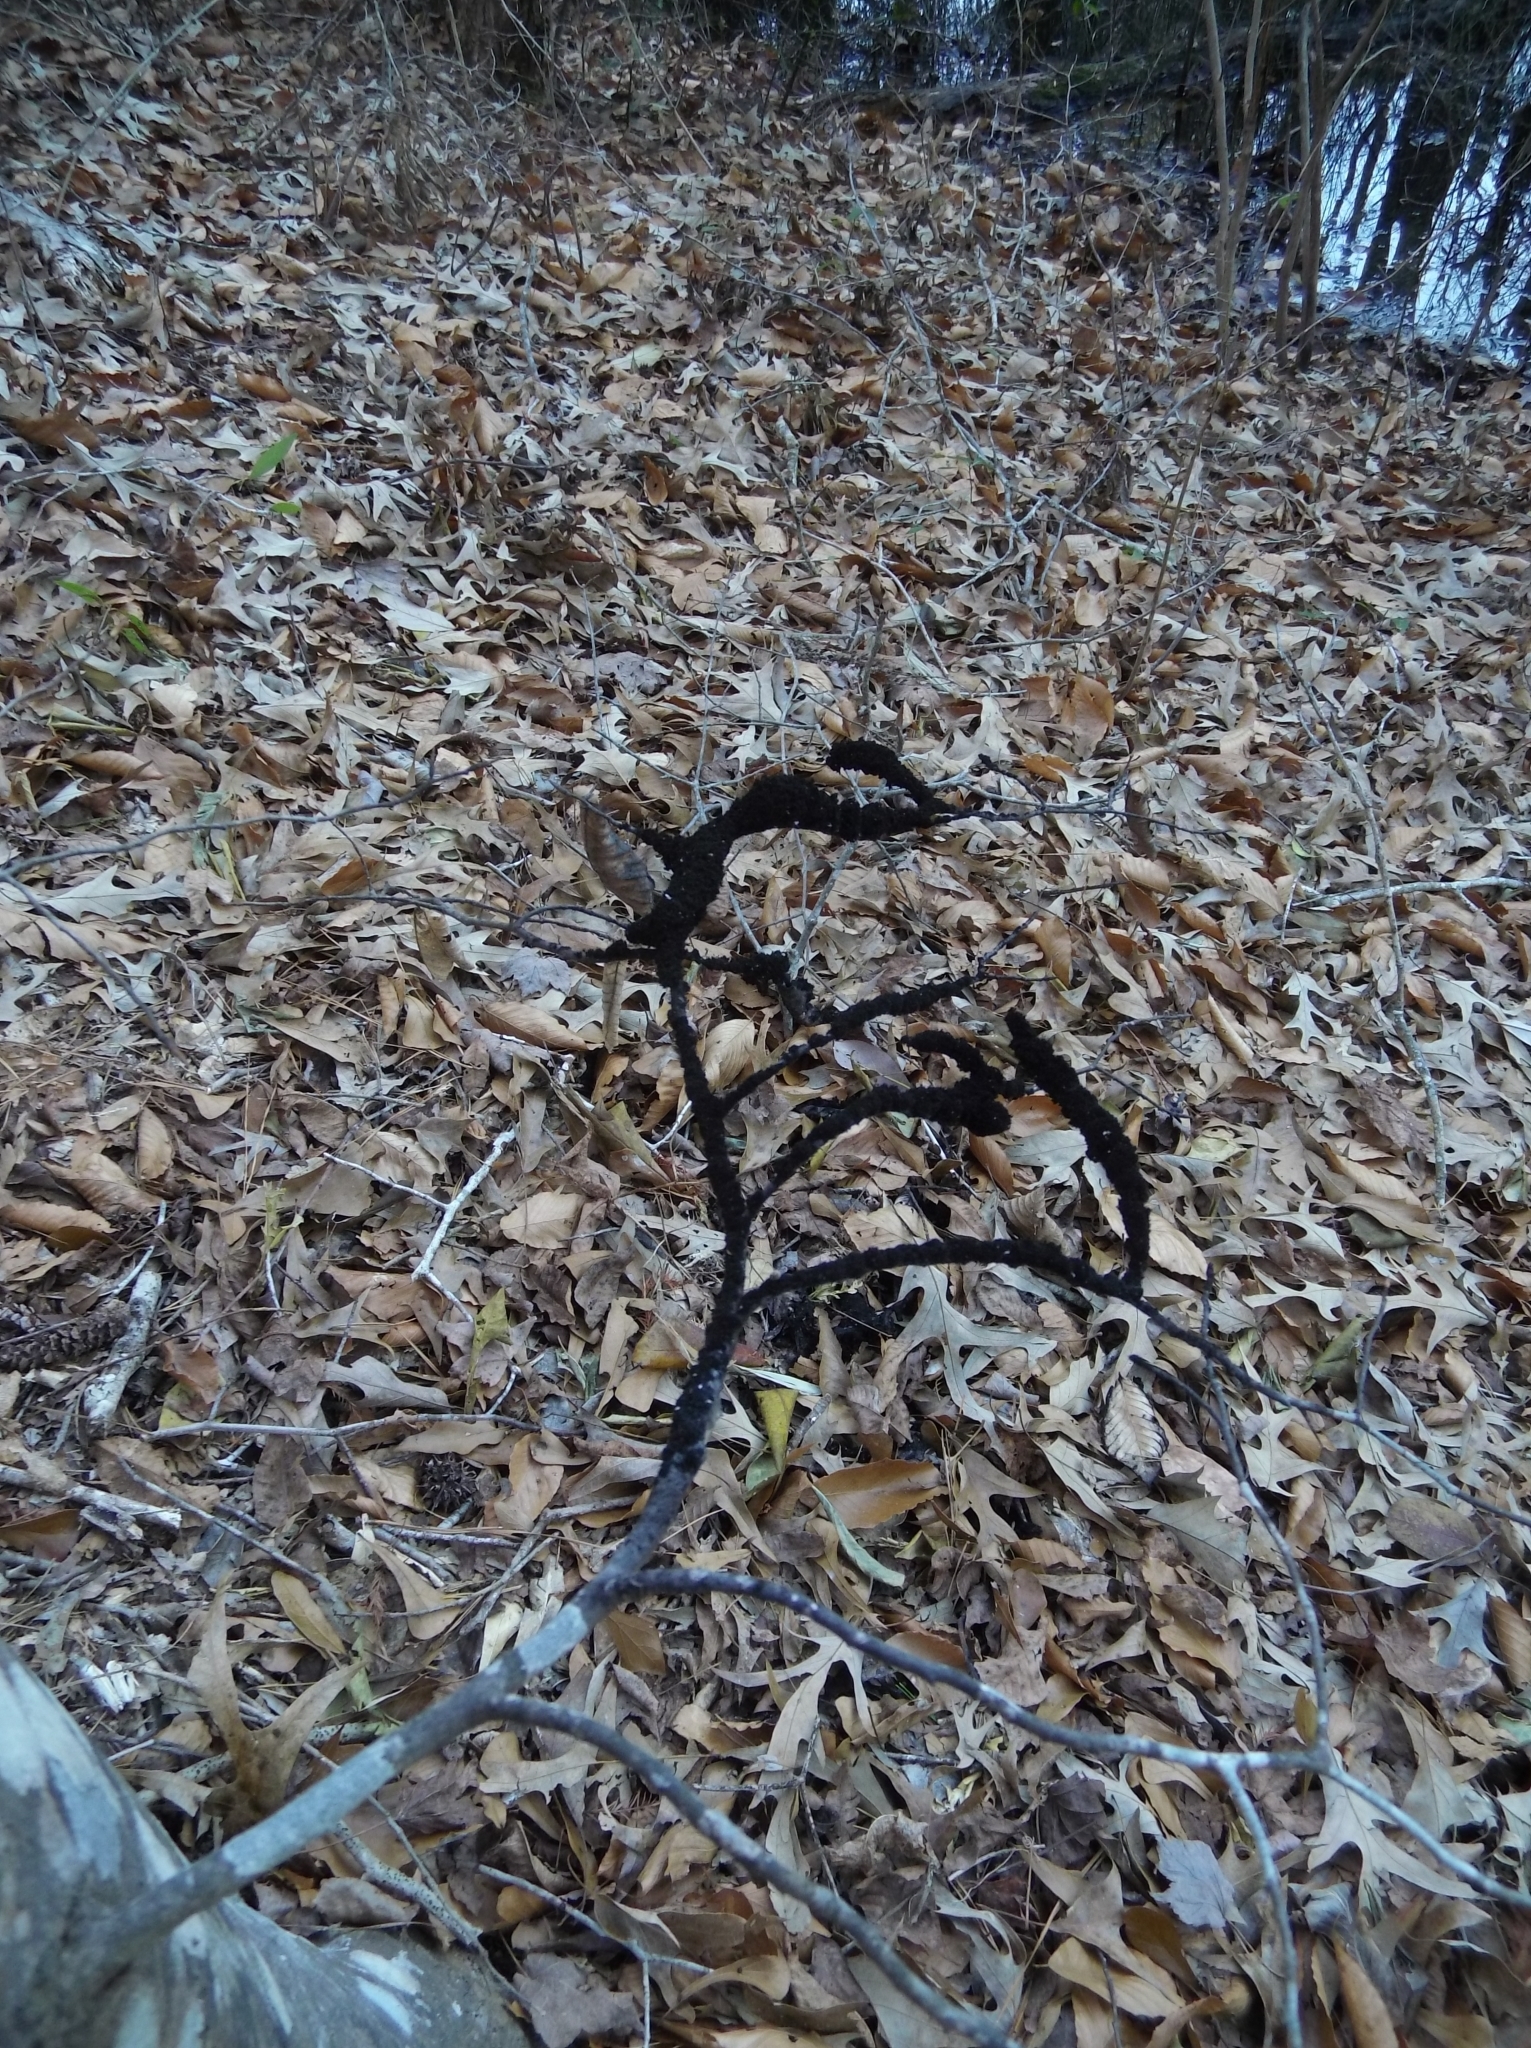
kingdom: Fungi
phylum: Ascomycota
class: Dothideomycetes
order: Capnodiales
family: Capnodiaceae
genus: Scorias
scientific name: Scorias spongiosa
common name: Black sooty mold
